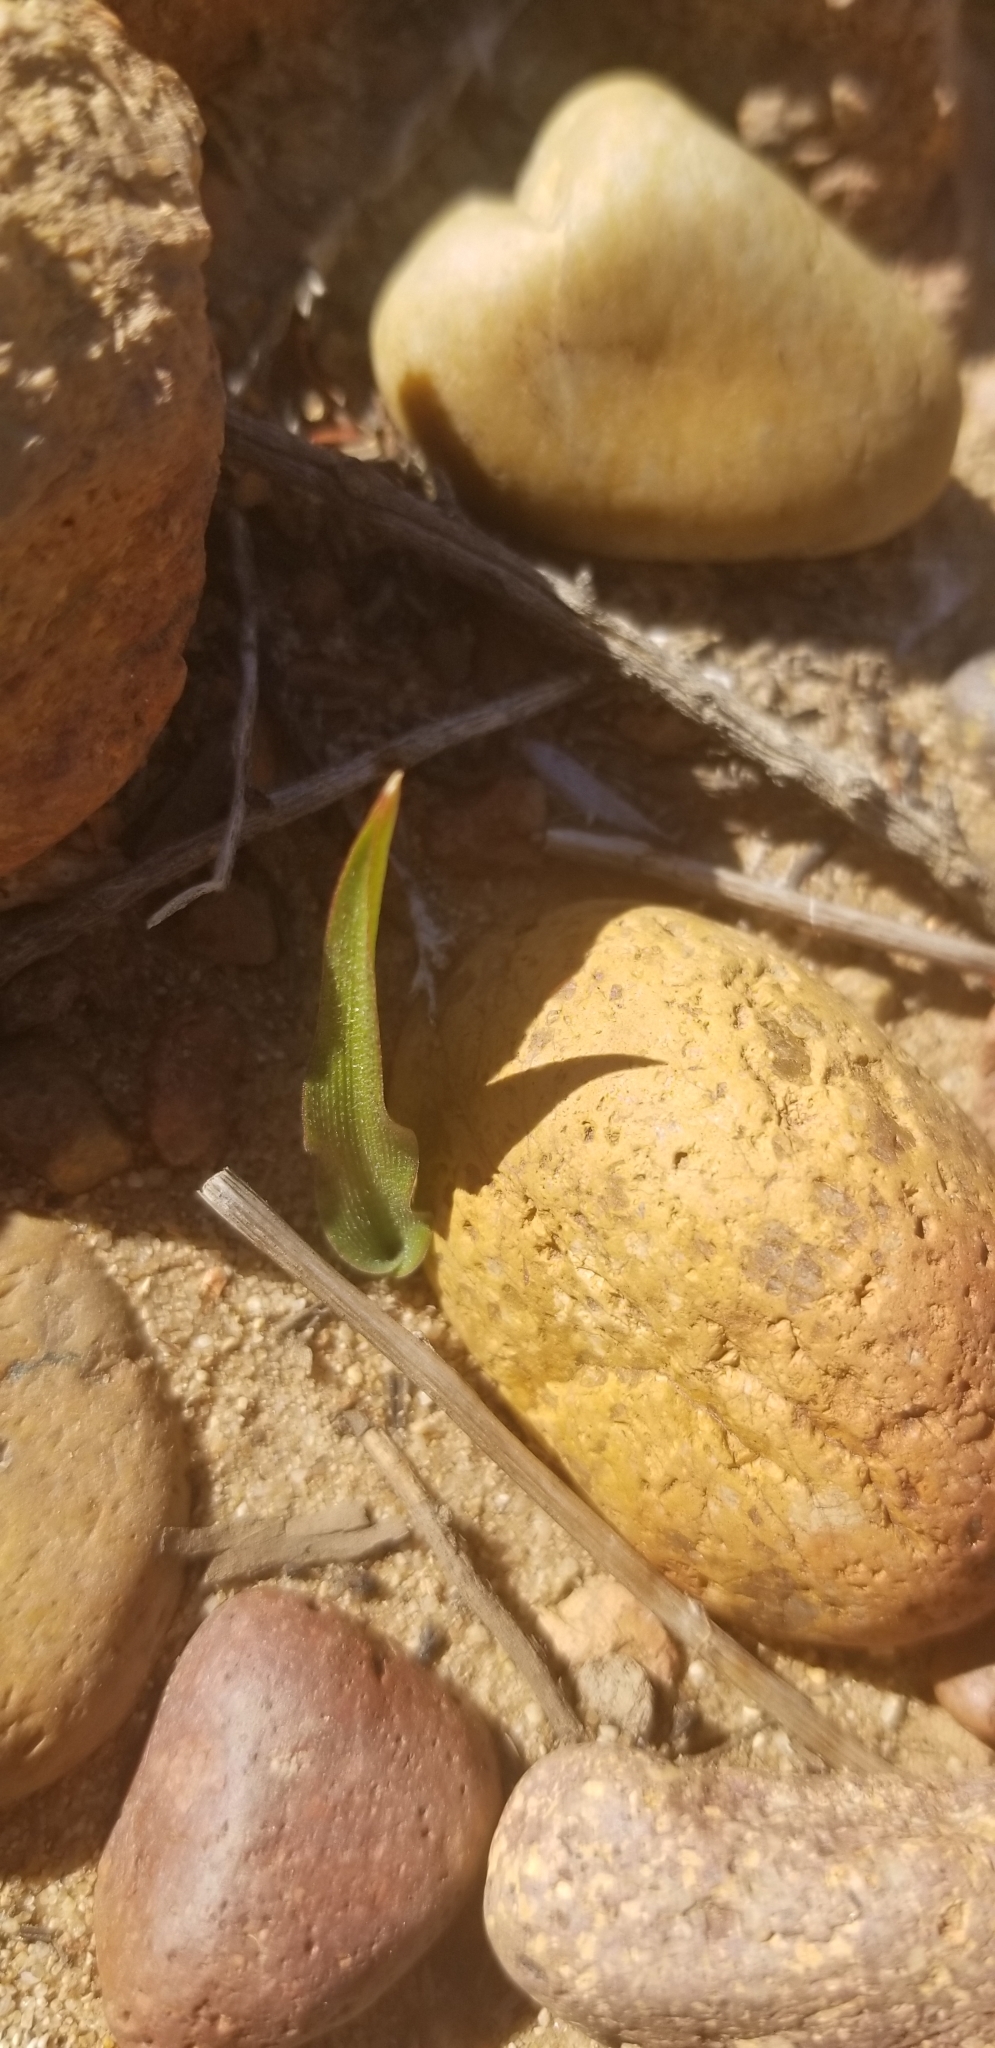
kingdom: Plantae
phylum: Tracheophyta
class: Liliopsida
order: Asparagales
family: Asparagaceae
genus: Hooveria
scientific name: Hooveria parviflora
